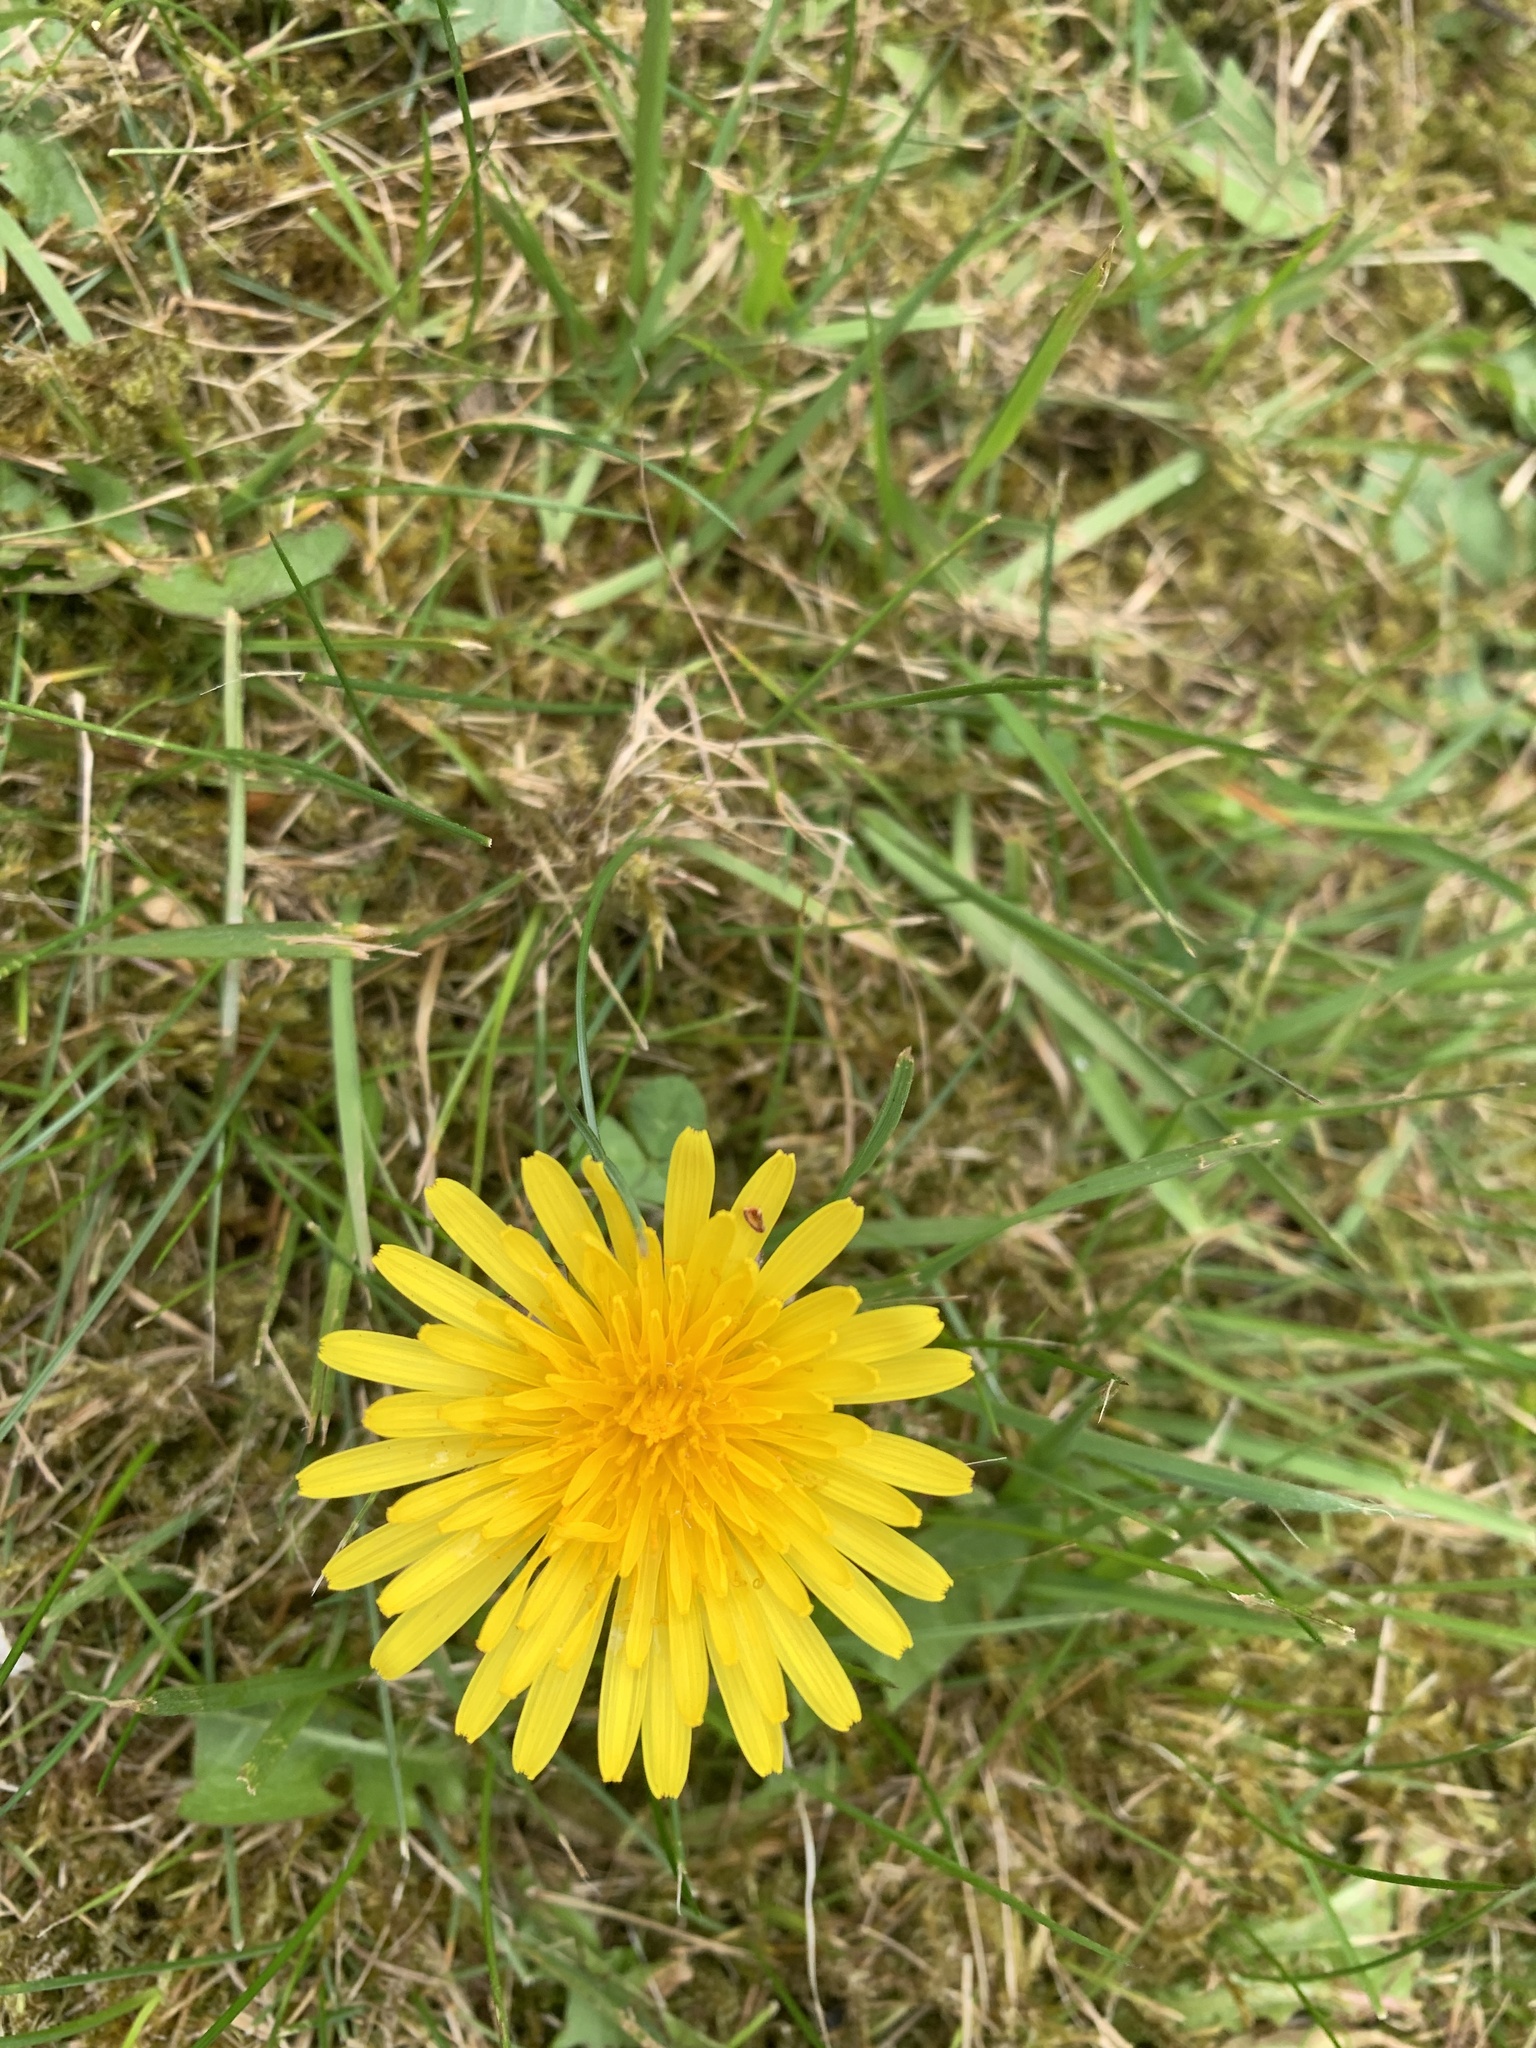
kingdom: Plantae
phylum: Tracheophyta
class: Magnoliopsida
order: Asterales
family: Asteraceae
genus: Taraxacum
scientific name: Taraxacum officinale
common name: Common dandelion
